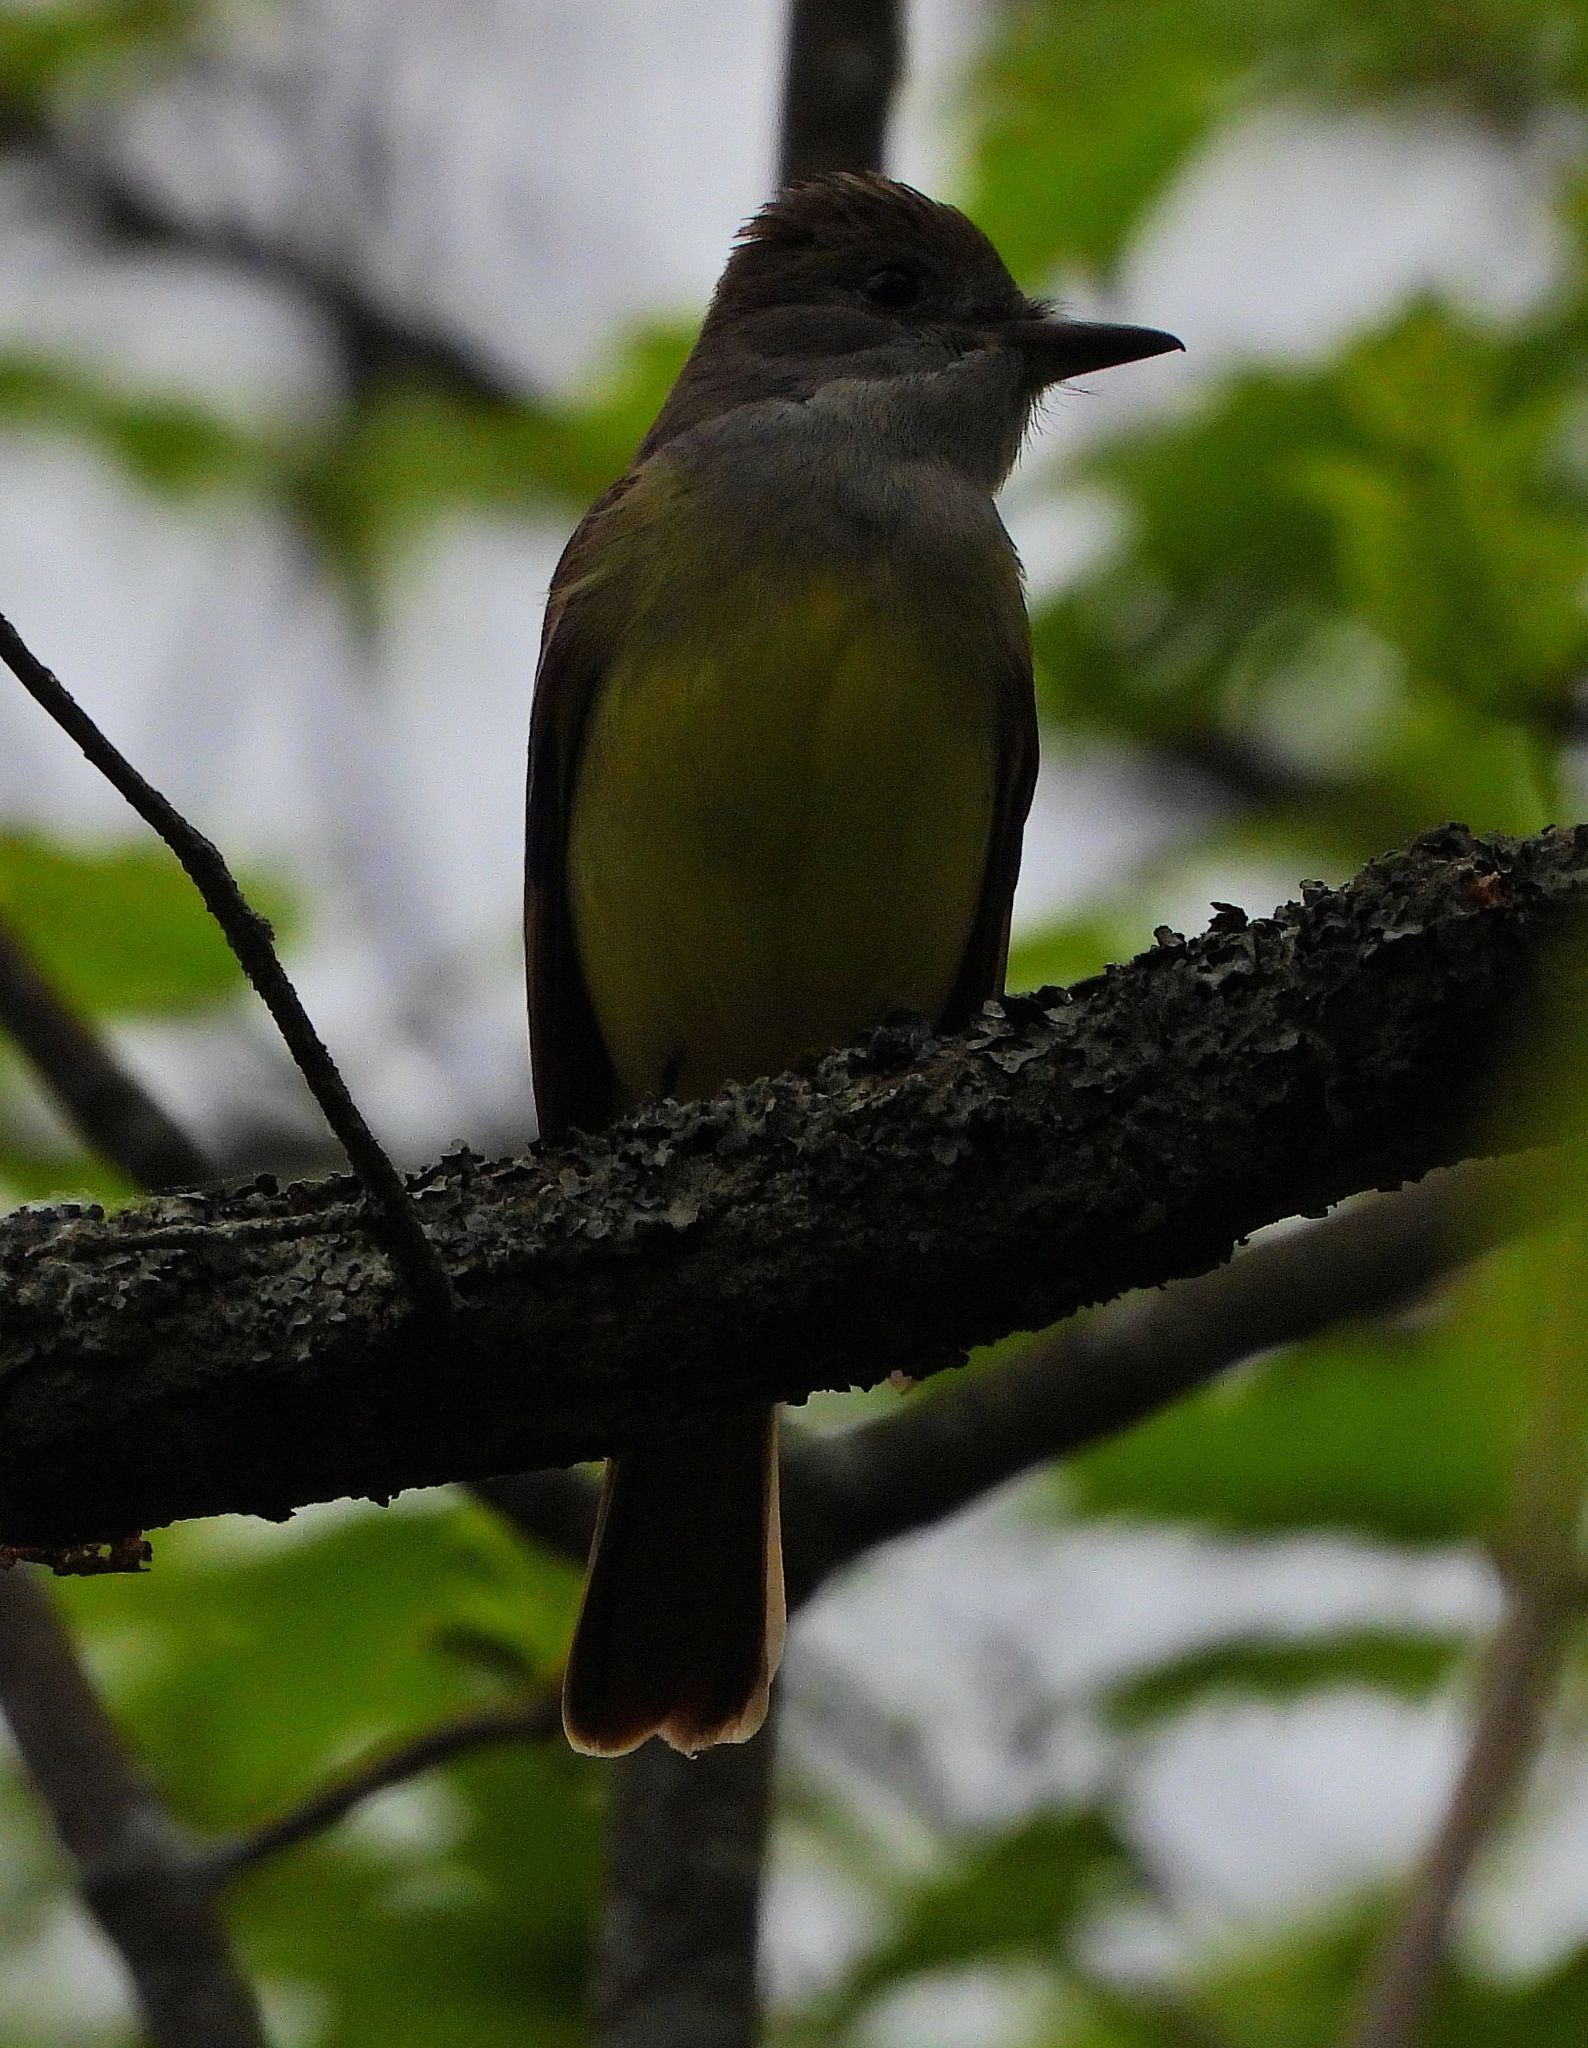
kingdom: Animalia
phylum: Chordata
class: Aves
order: Passeriformes
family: Tyrannidae
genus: Myiarchus
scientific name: Myiarchus crinitus
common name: Great crested flycatcher
